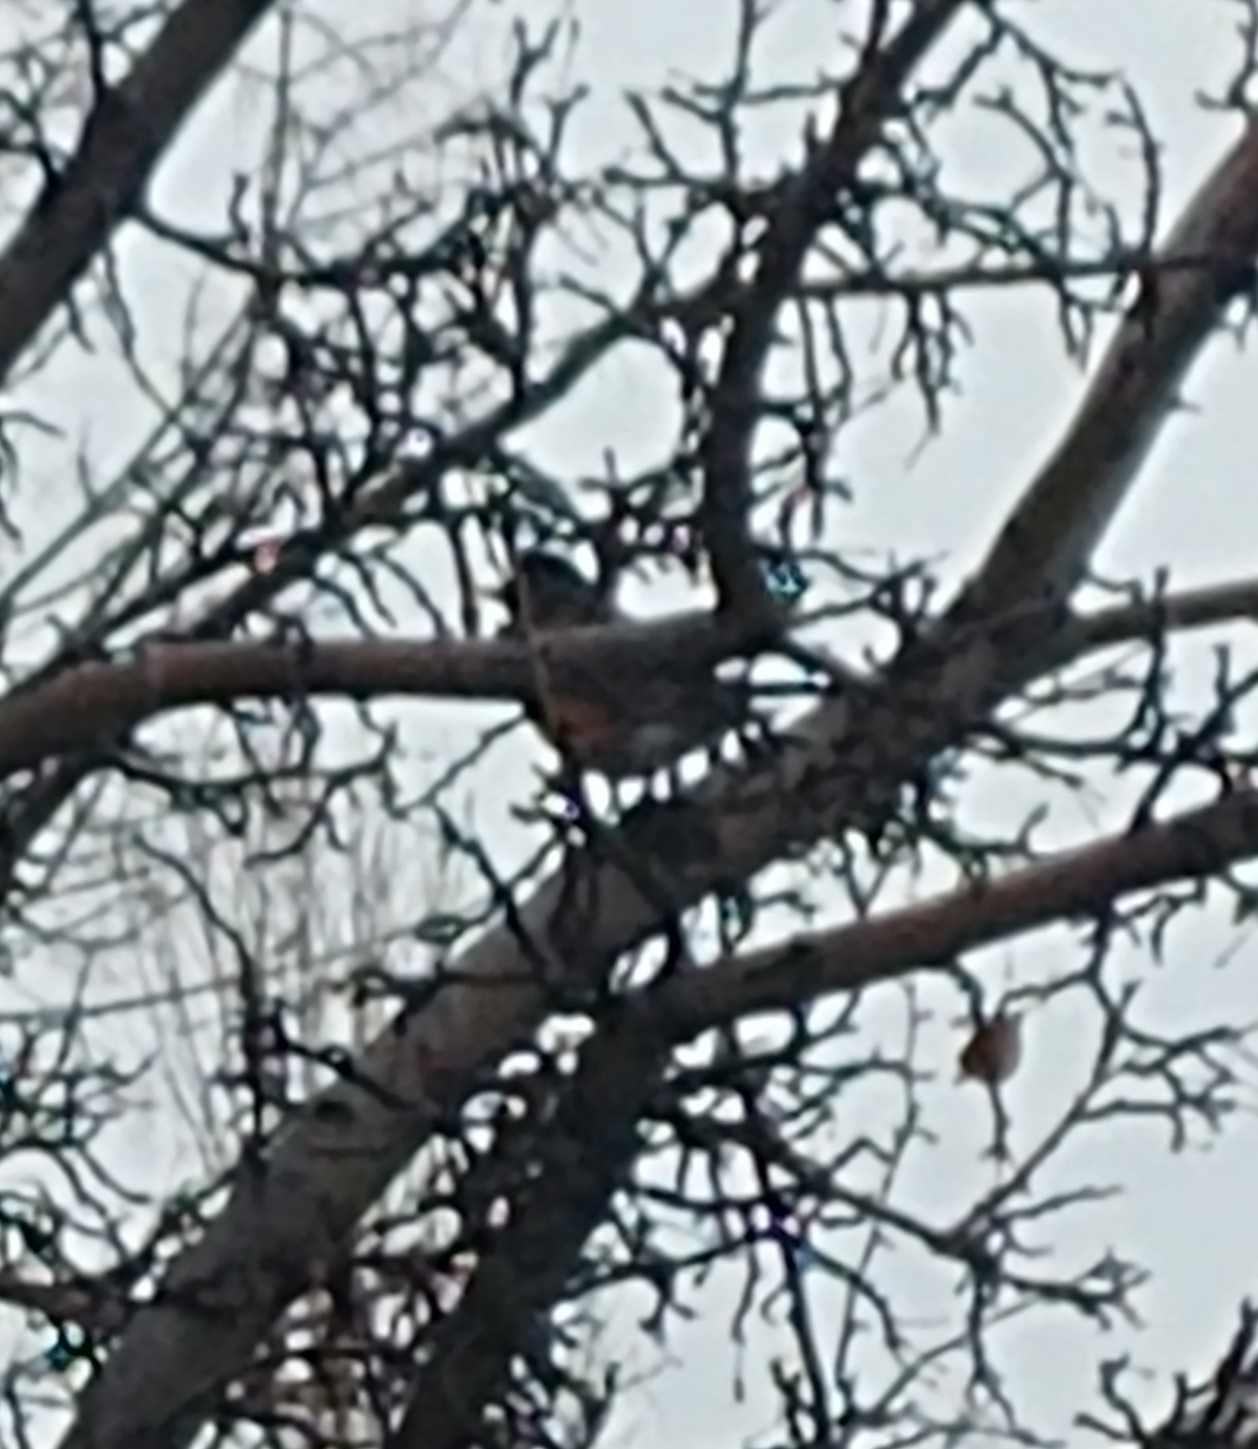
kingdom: Animalia
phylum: Chordata
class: Aves
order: Passeriformes
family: Turdidae
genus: Turdus
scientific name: Turdus migratorius
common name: American robin
